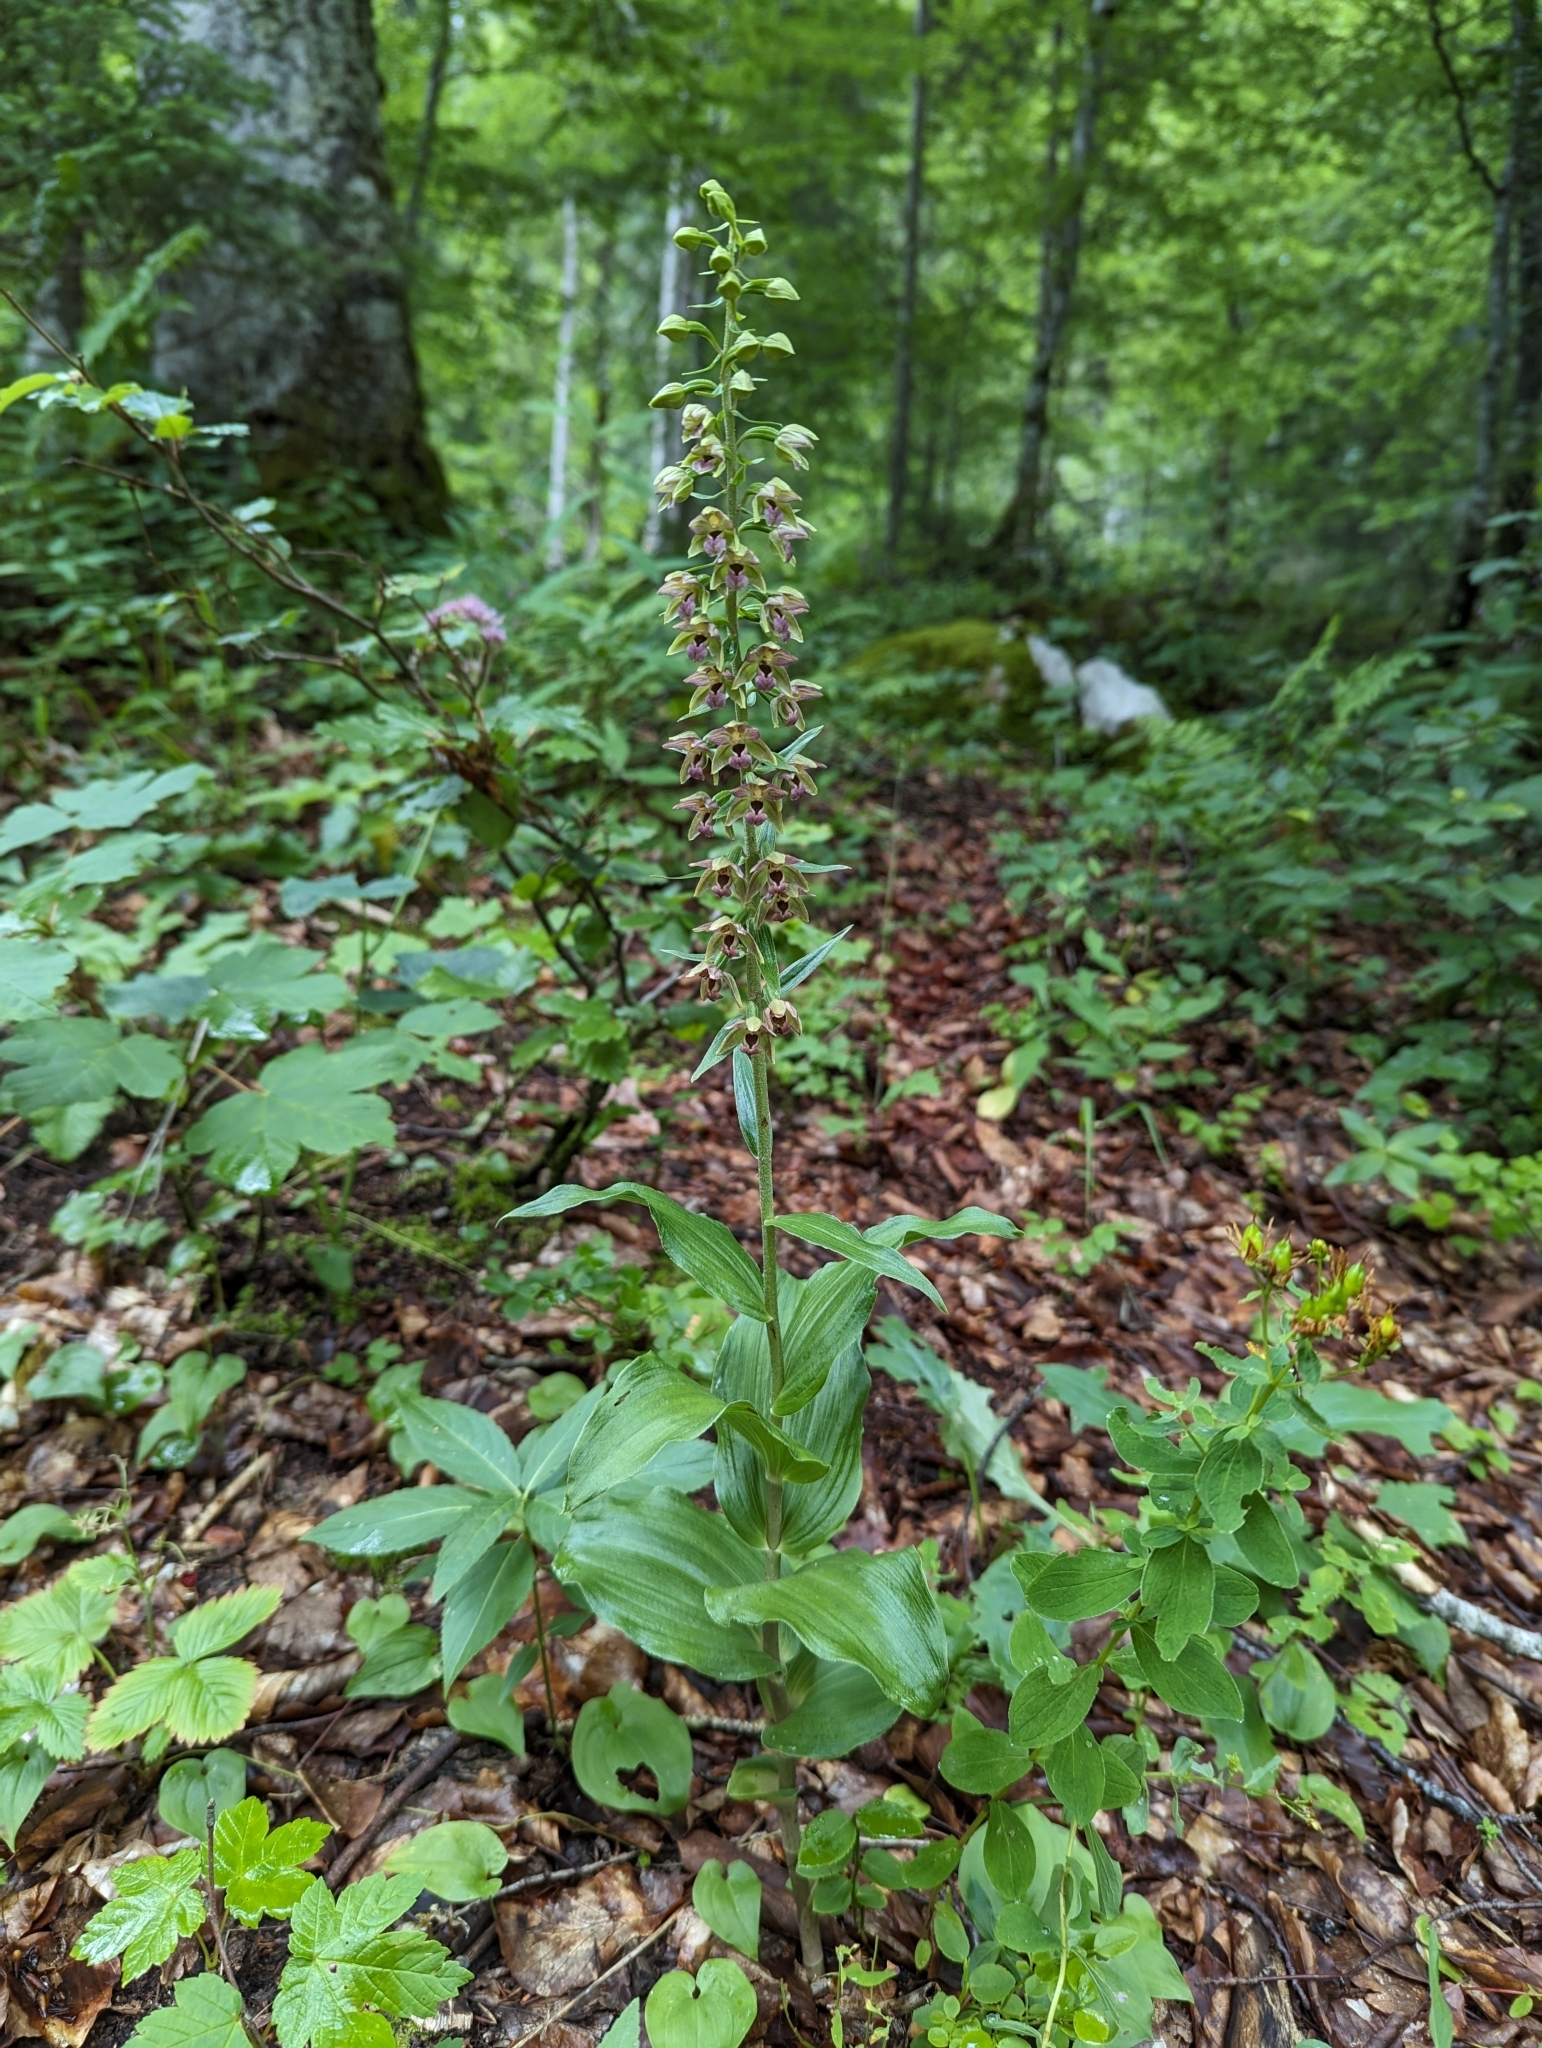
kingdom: Plantae
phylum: Tracheophyta
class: Liliopsida
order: Asparagales
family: Orchidaceae
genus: Epipactis
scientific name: Epipactis helleborine
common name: Broad-leaved helleborine
